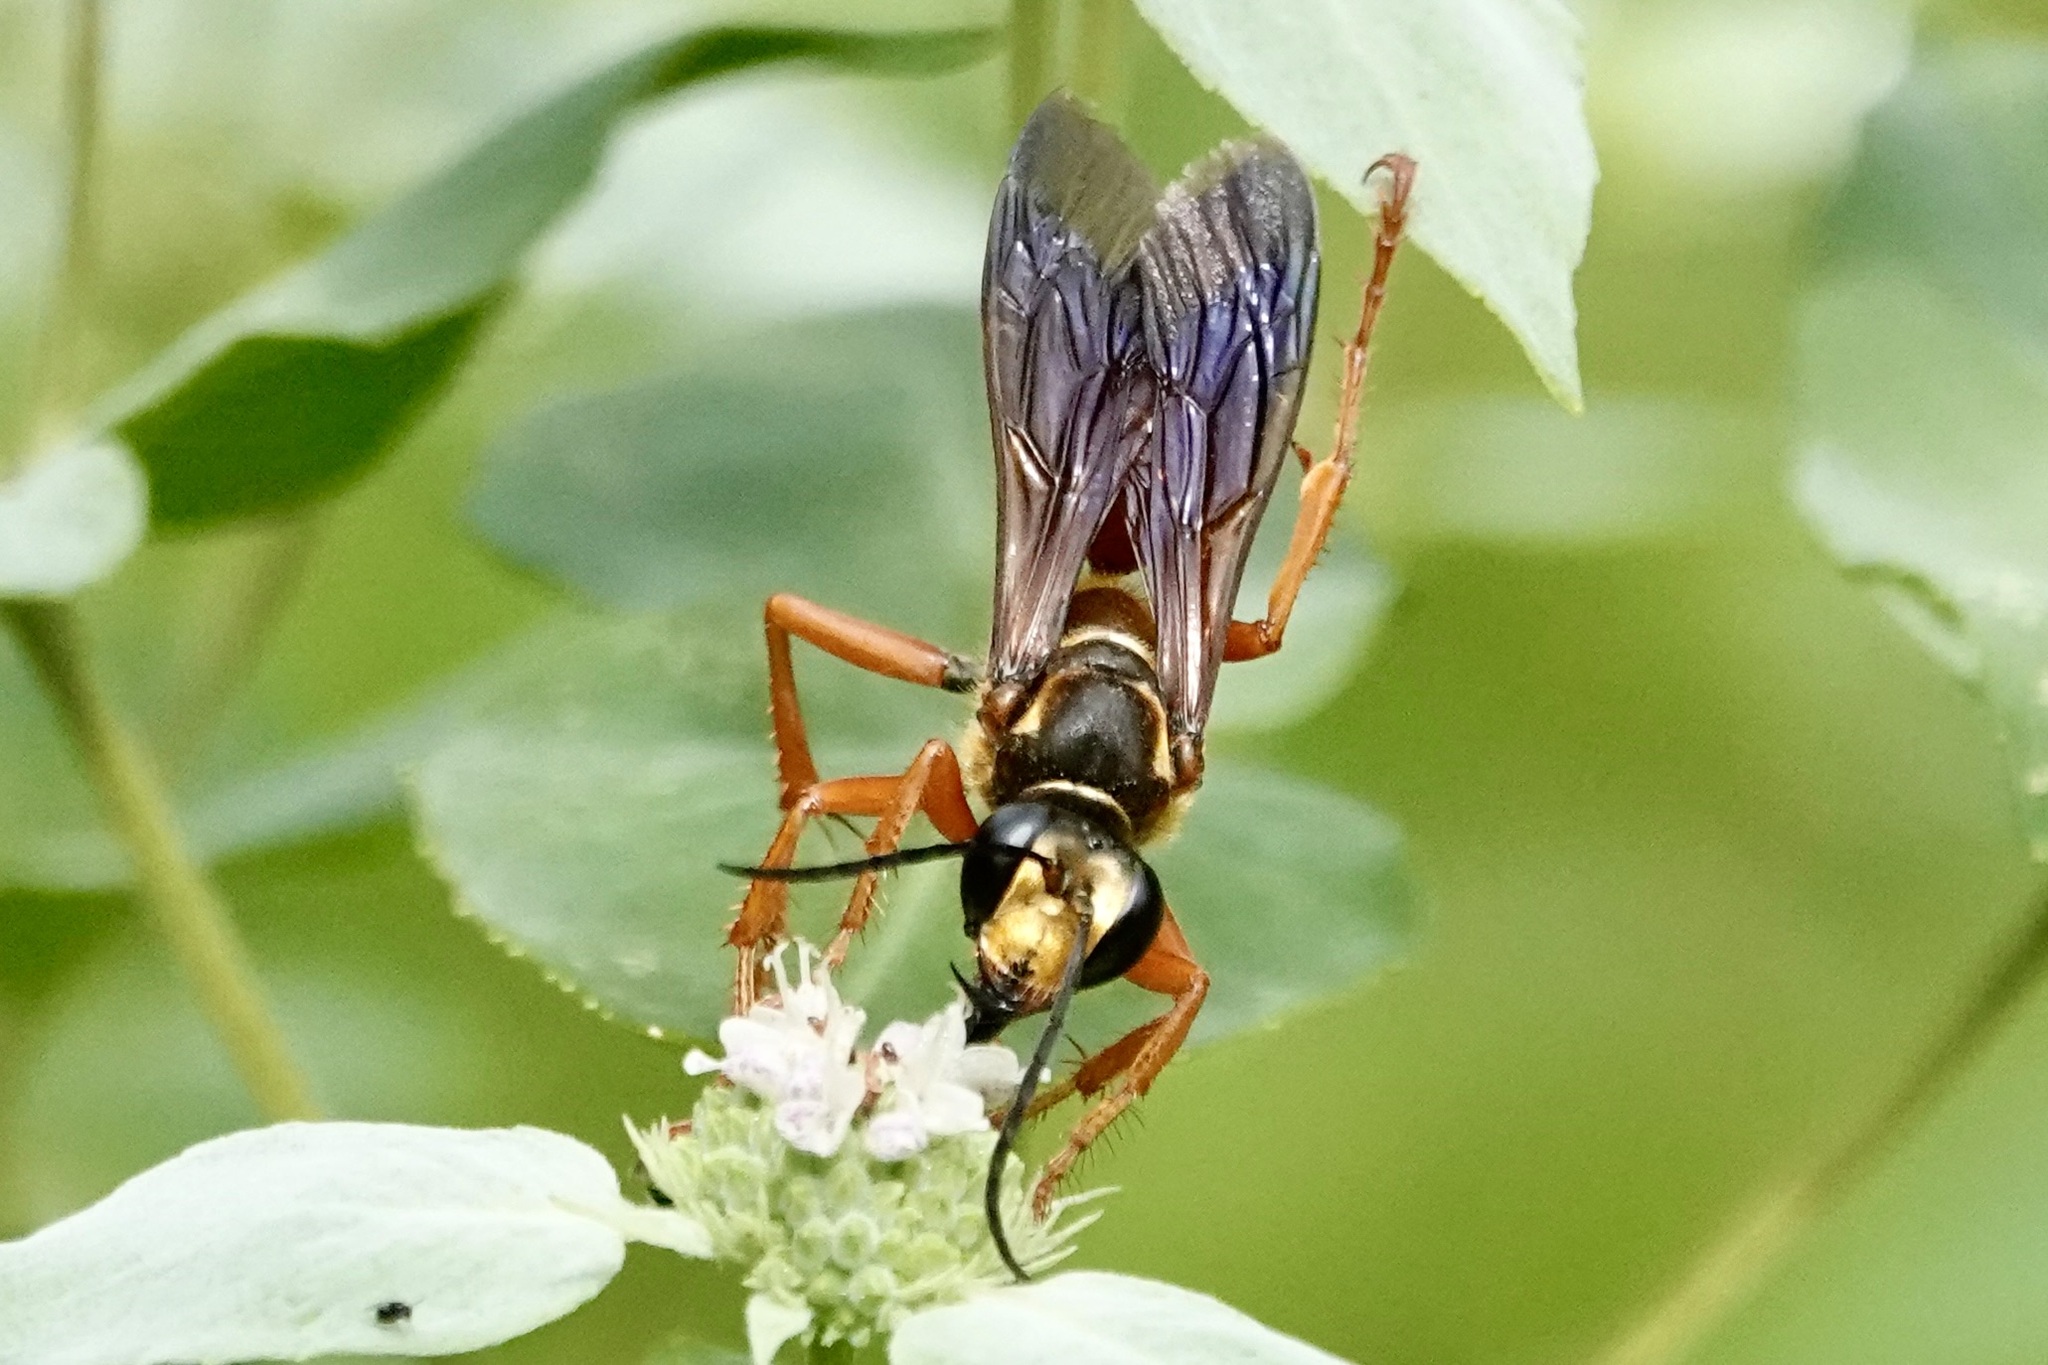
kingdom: Animalia
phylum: Arthropoda
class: Insecta
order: Hymenoptera
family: Sphecidae
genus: Sphex
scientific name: Sphex ichneumoneus
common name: Great golden digger wasp
